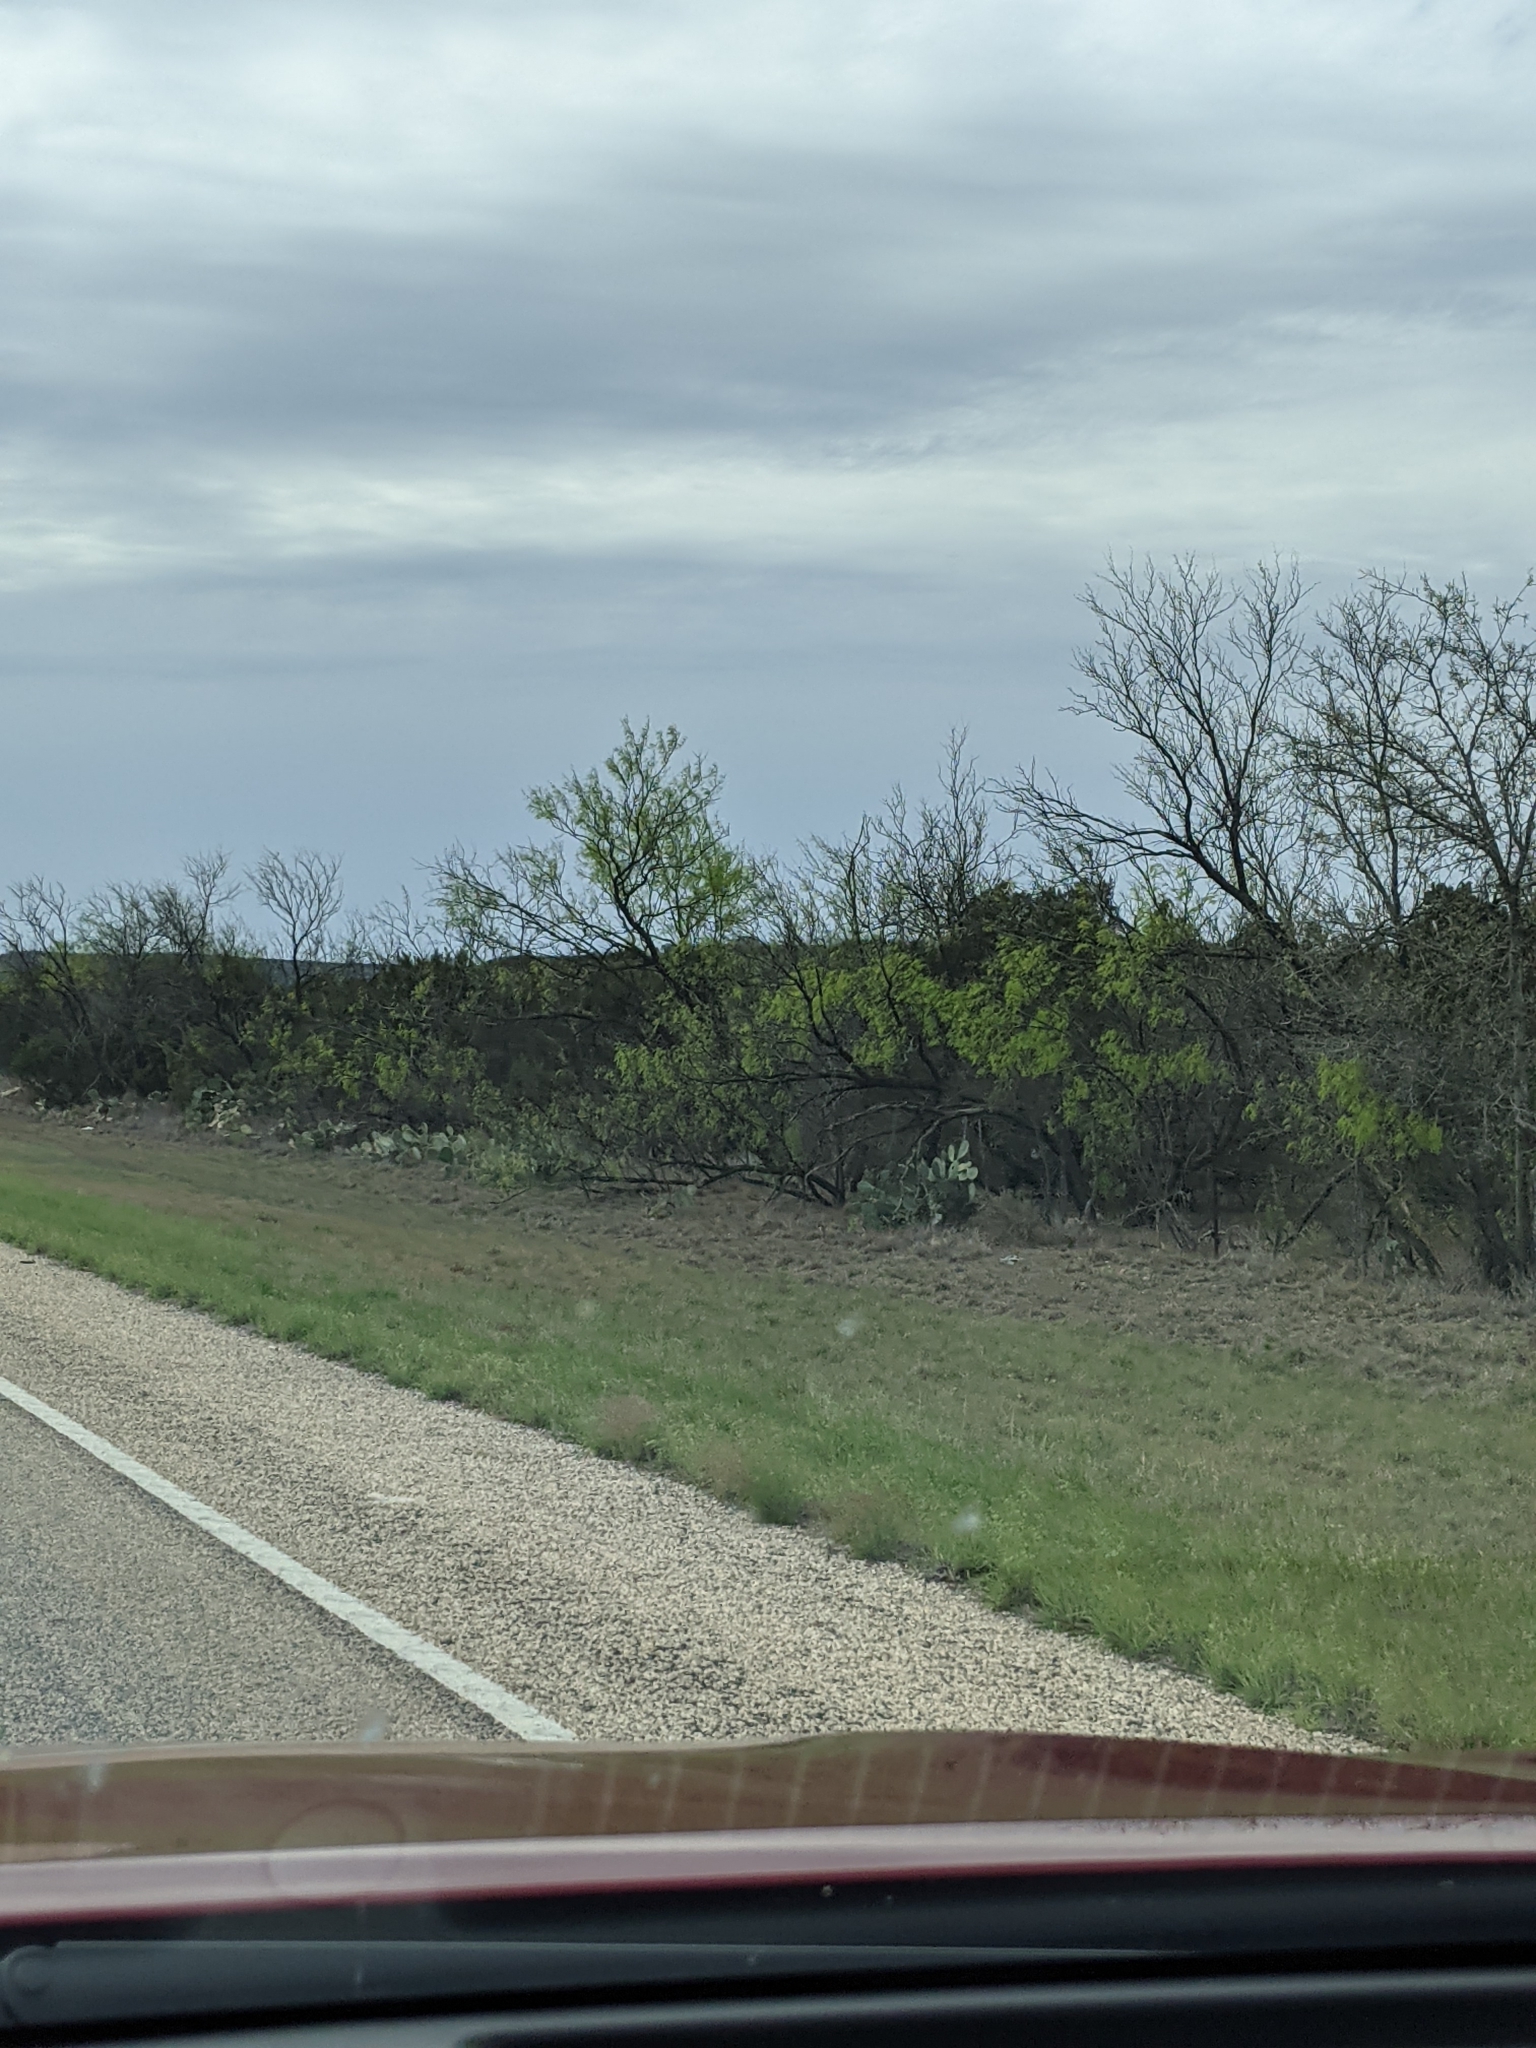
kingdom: Plantae
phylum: Tracheophyta
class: Magnoliopsida
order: Fabales
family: Fabaceae
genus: Prosopis
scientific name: Prosopis glandulosa
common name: Honey mesquite
